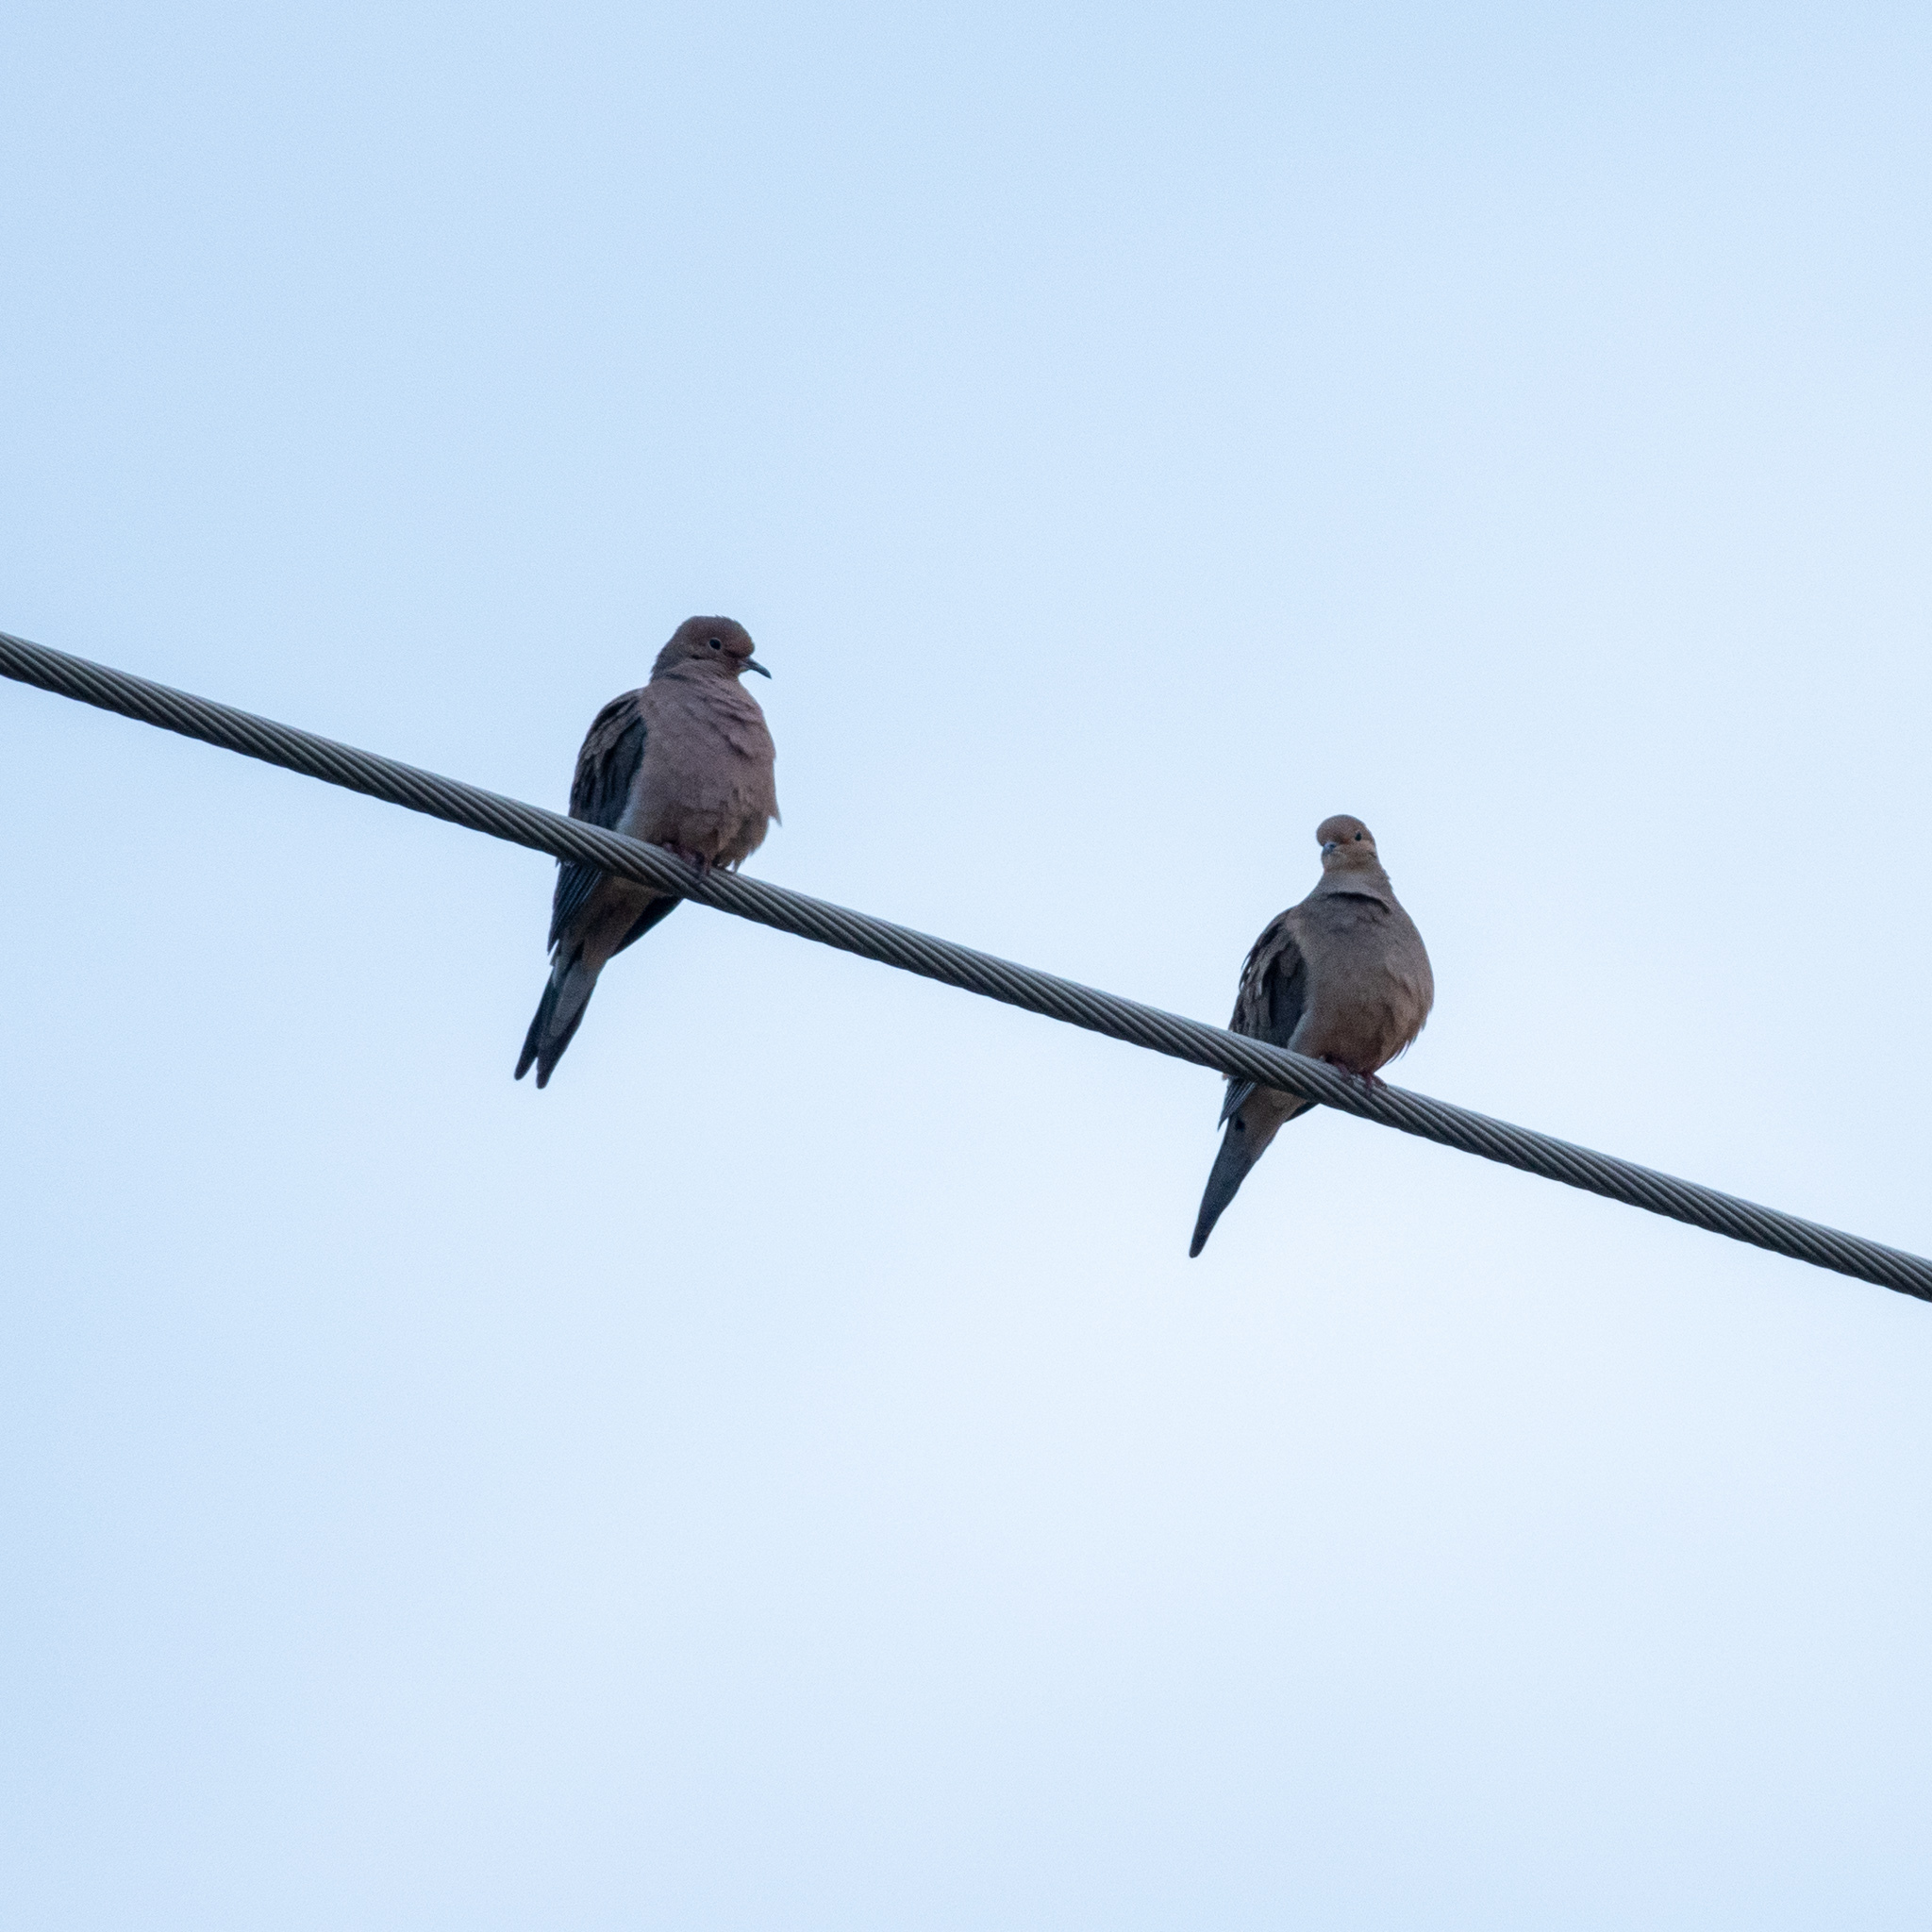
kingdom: Animalia
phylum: Chordata
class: Aves
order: Columbiformes
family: Columbidae
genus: Zenaida
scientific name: Zenaida macroura
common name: Mourning dove
